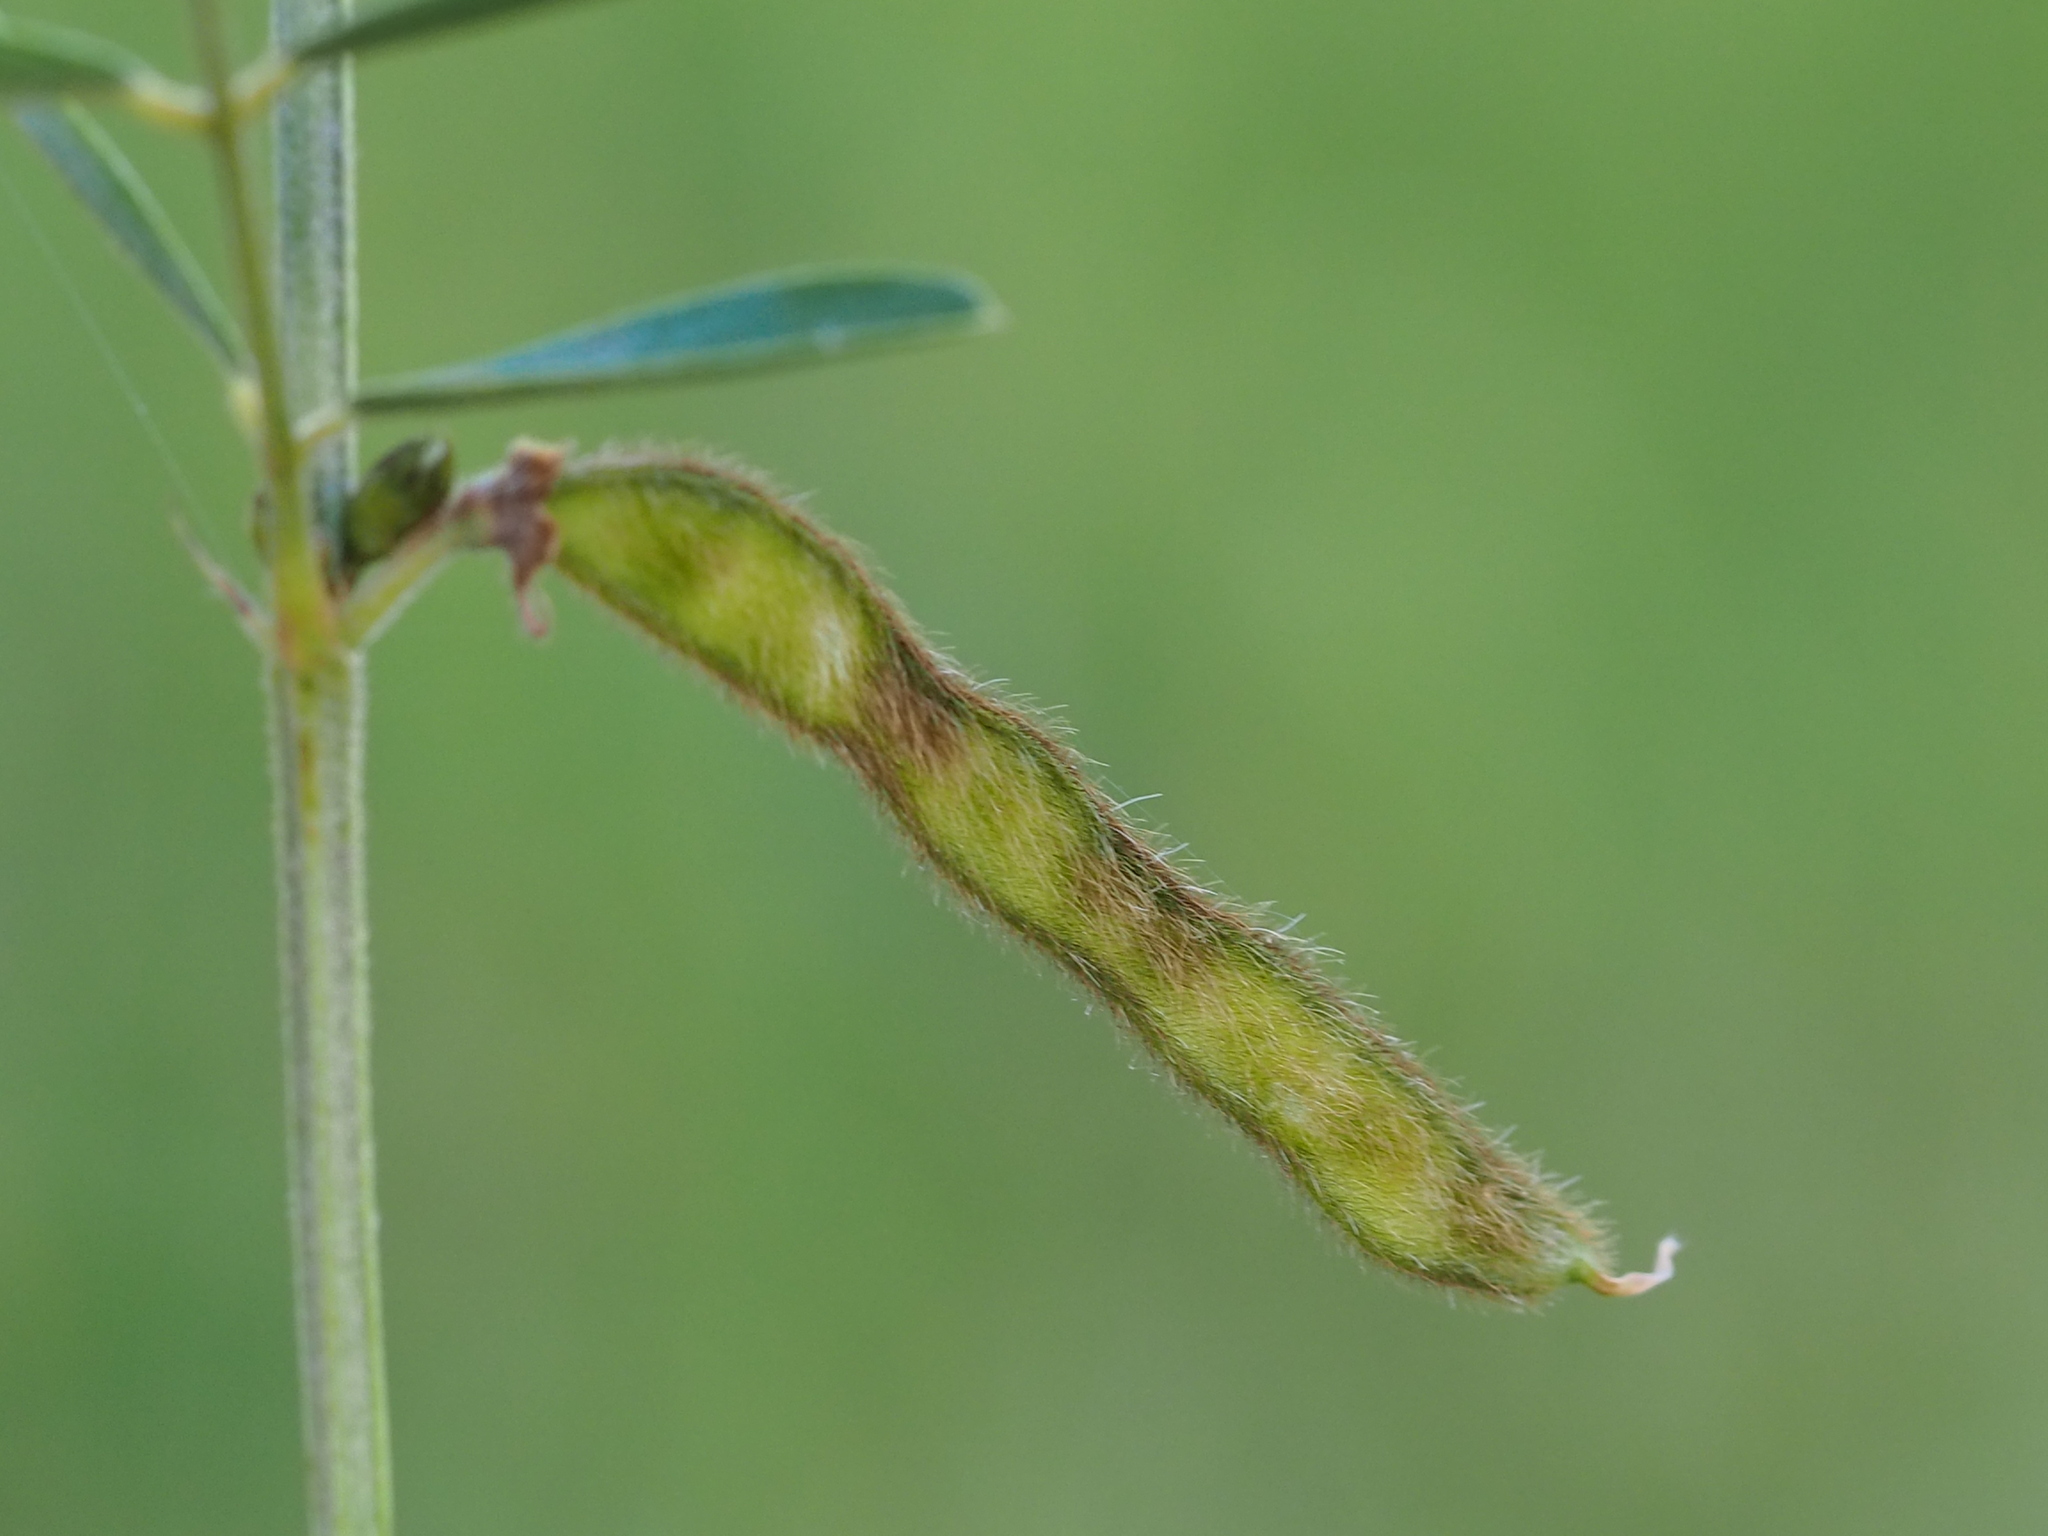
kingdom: Plantae
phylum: Tracheophyta
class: Magnoliopsida
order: Fabales
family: Fabaceae
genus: Tephrosia
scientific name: Tephrosia noctiflora
